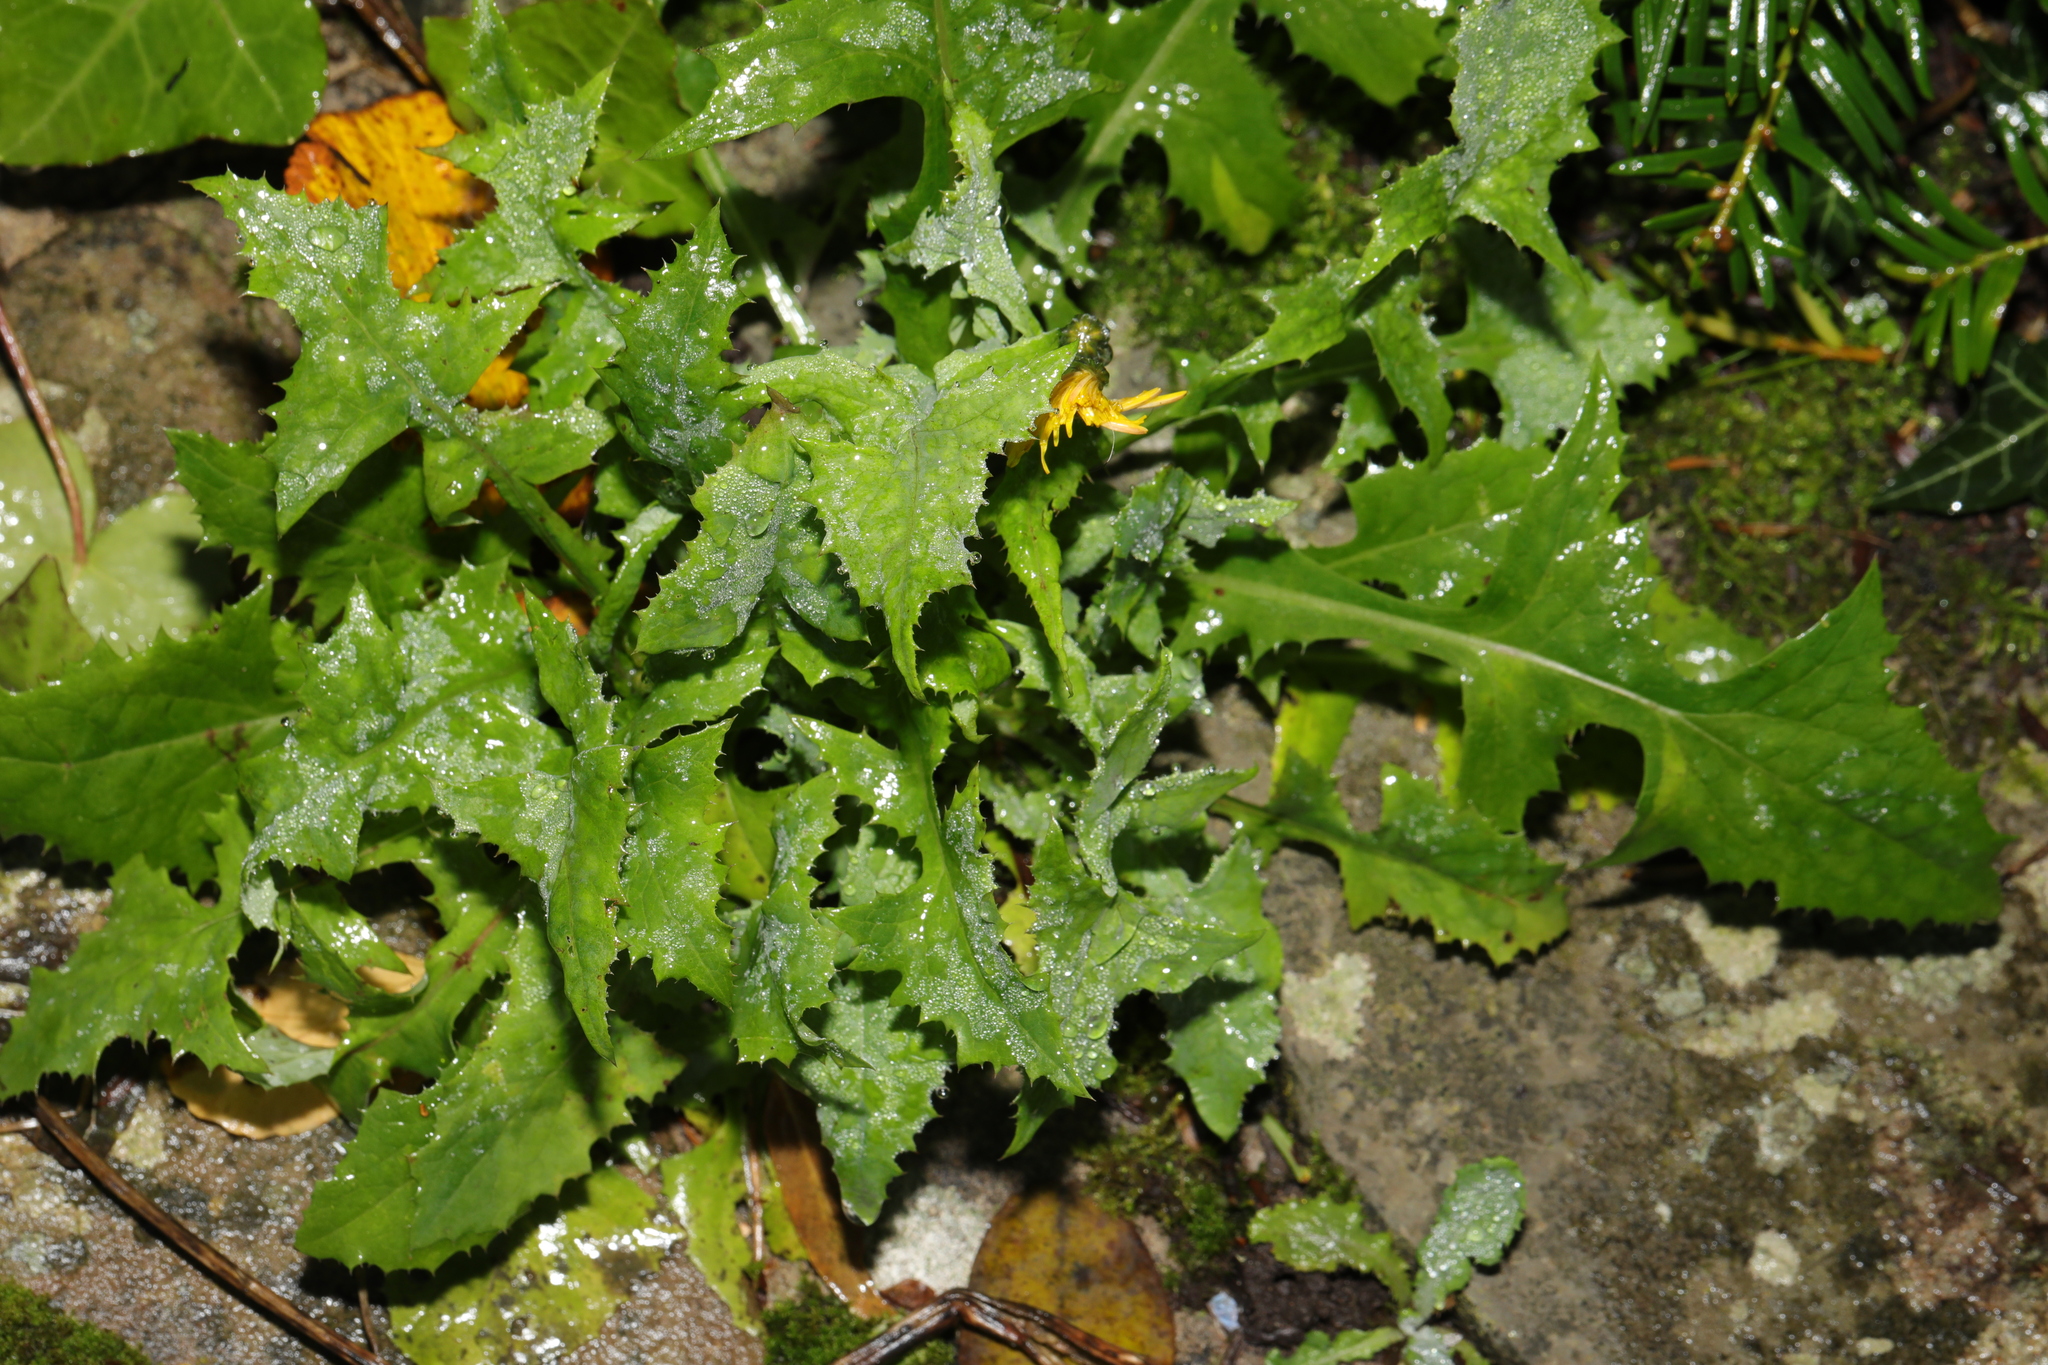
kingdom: Plantae
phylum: Tracheophyta
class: Magnoliopsida
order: Asterales
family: Asteraceae
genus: Sonchus
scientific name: Sonchus oleraceus
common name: Common sowthistle
